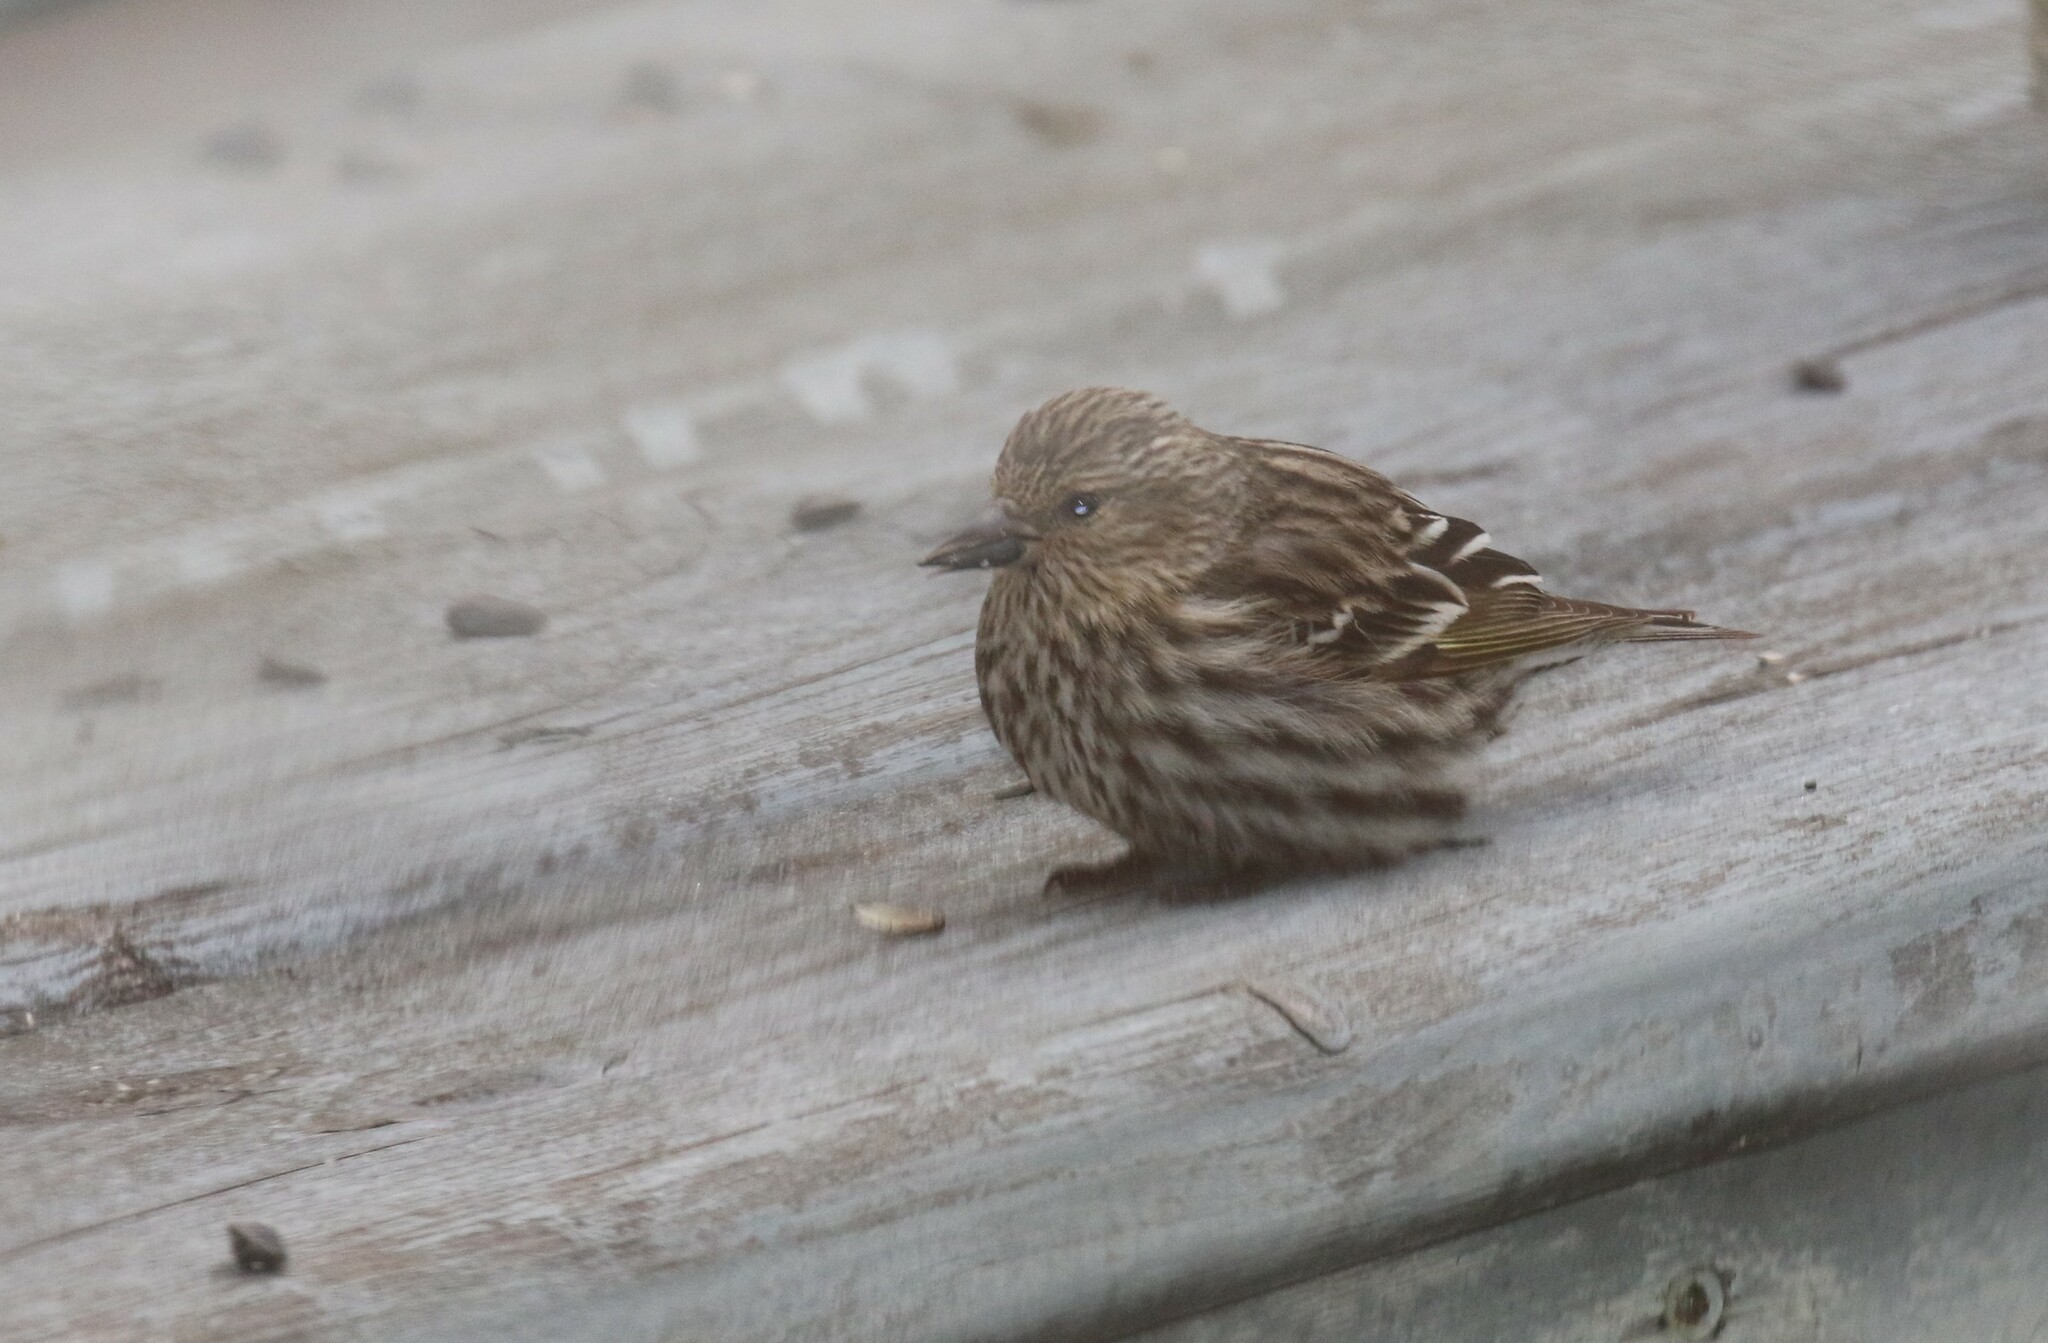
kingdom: Animalia
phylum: Chordata
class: Aves
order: Passeriformes
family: Fringillidae
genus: Spinus
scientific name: Spinus pinus
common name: Pine siskin
